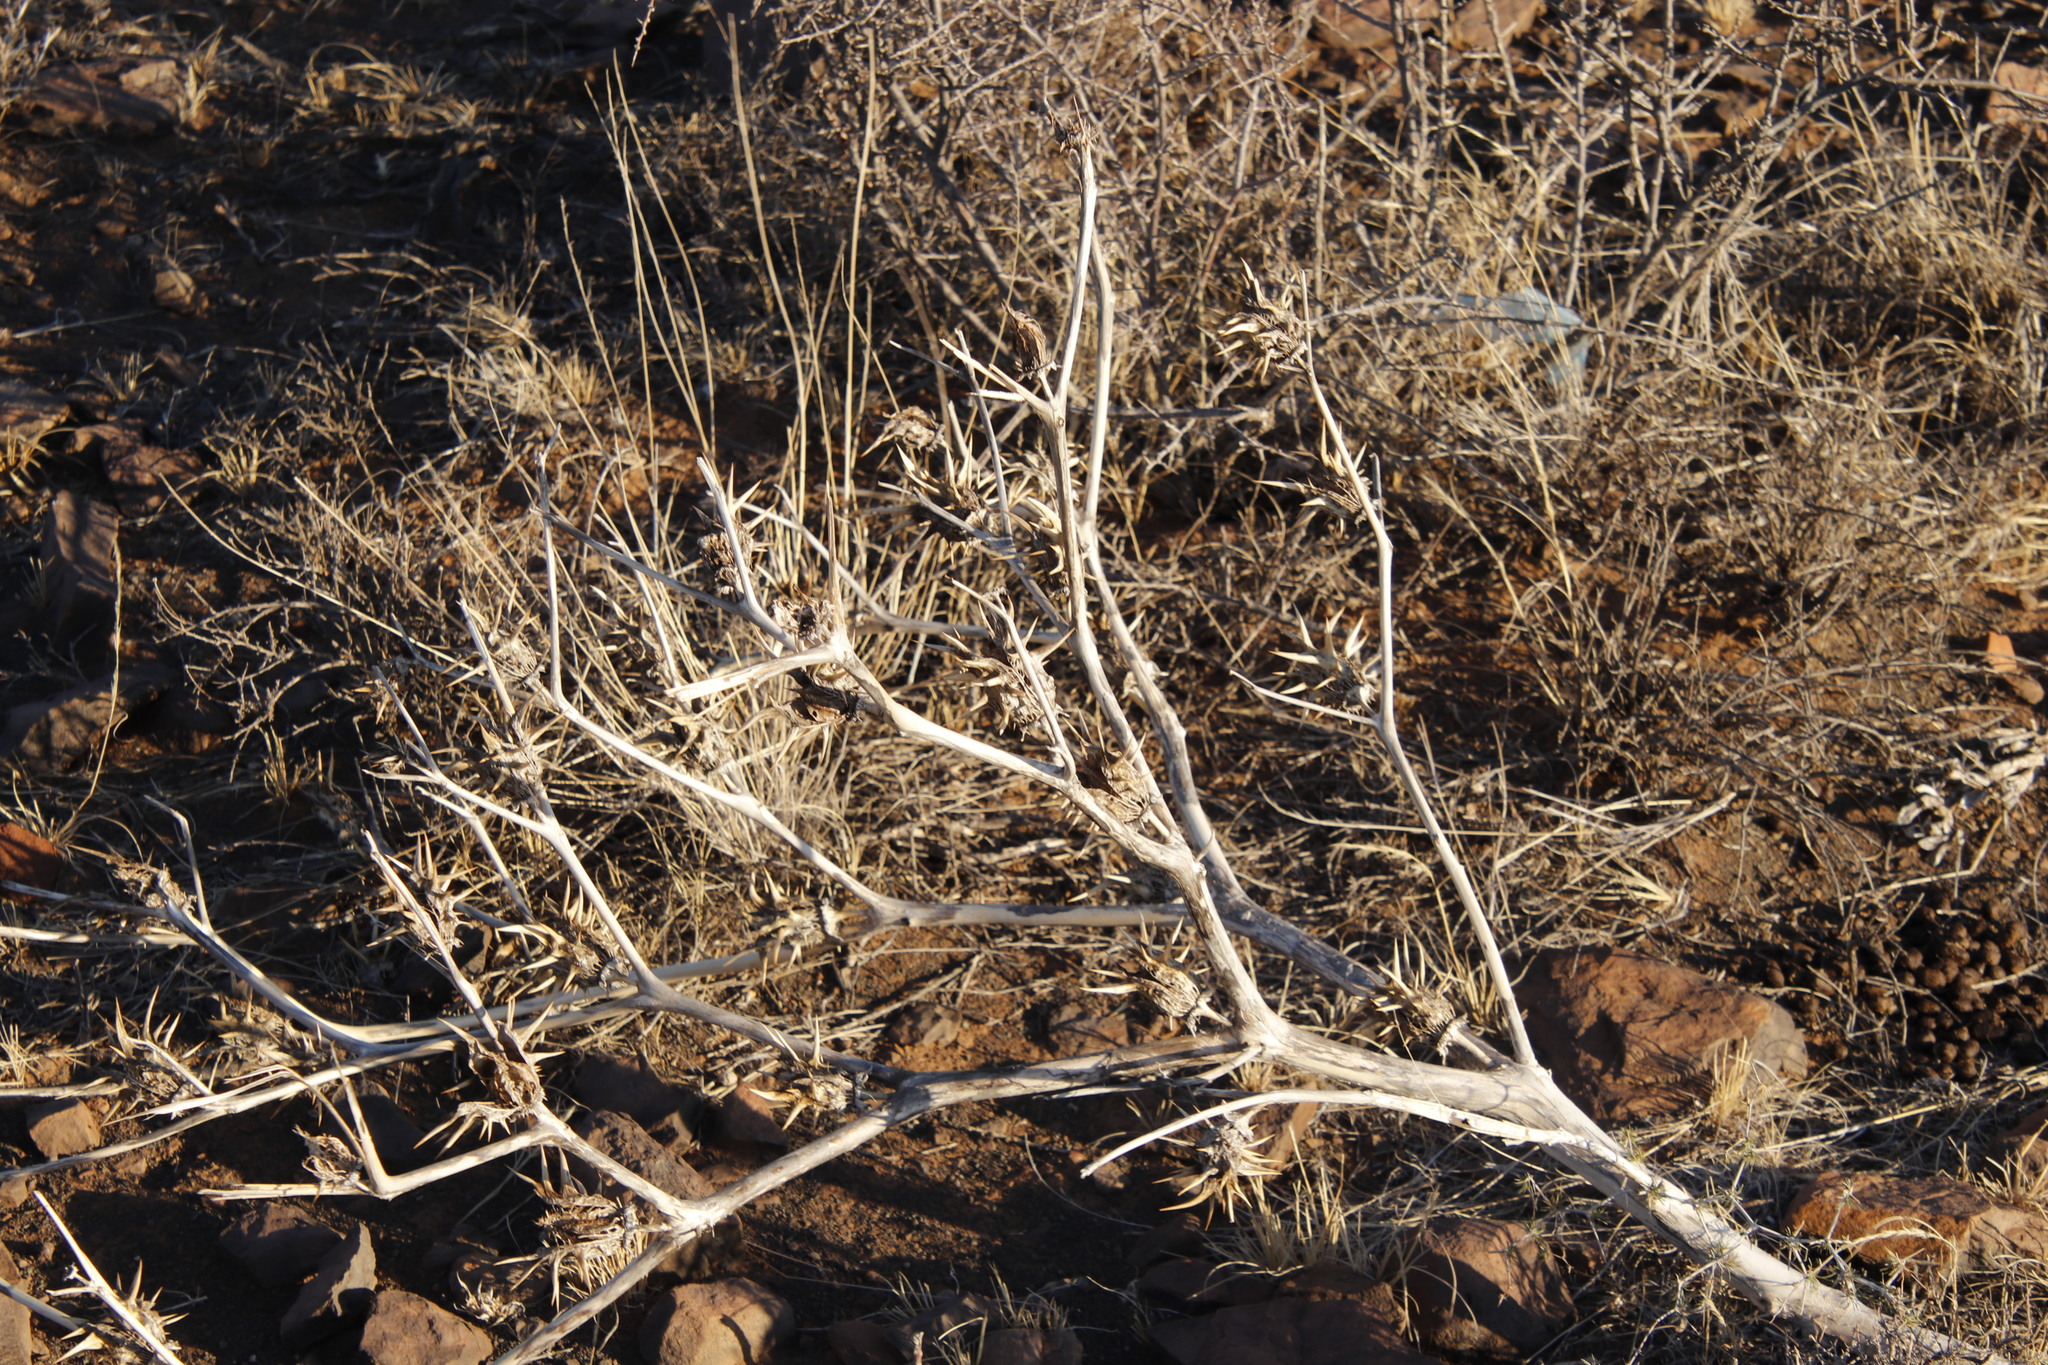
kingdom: Plantae
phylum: Tracheophyta
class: Magnoliopsida
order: Solanales
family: Solanaceae
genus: Datura
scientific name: Datura ferox
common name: Angel's-trumpets
